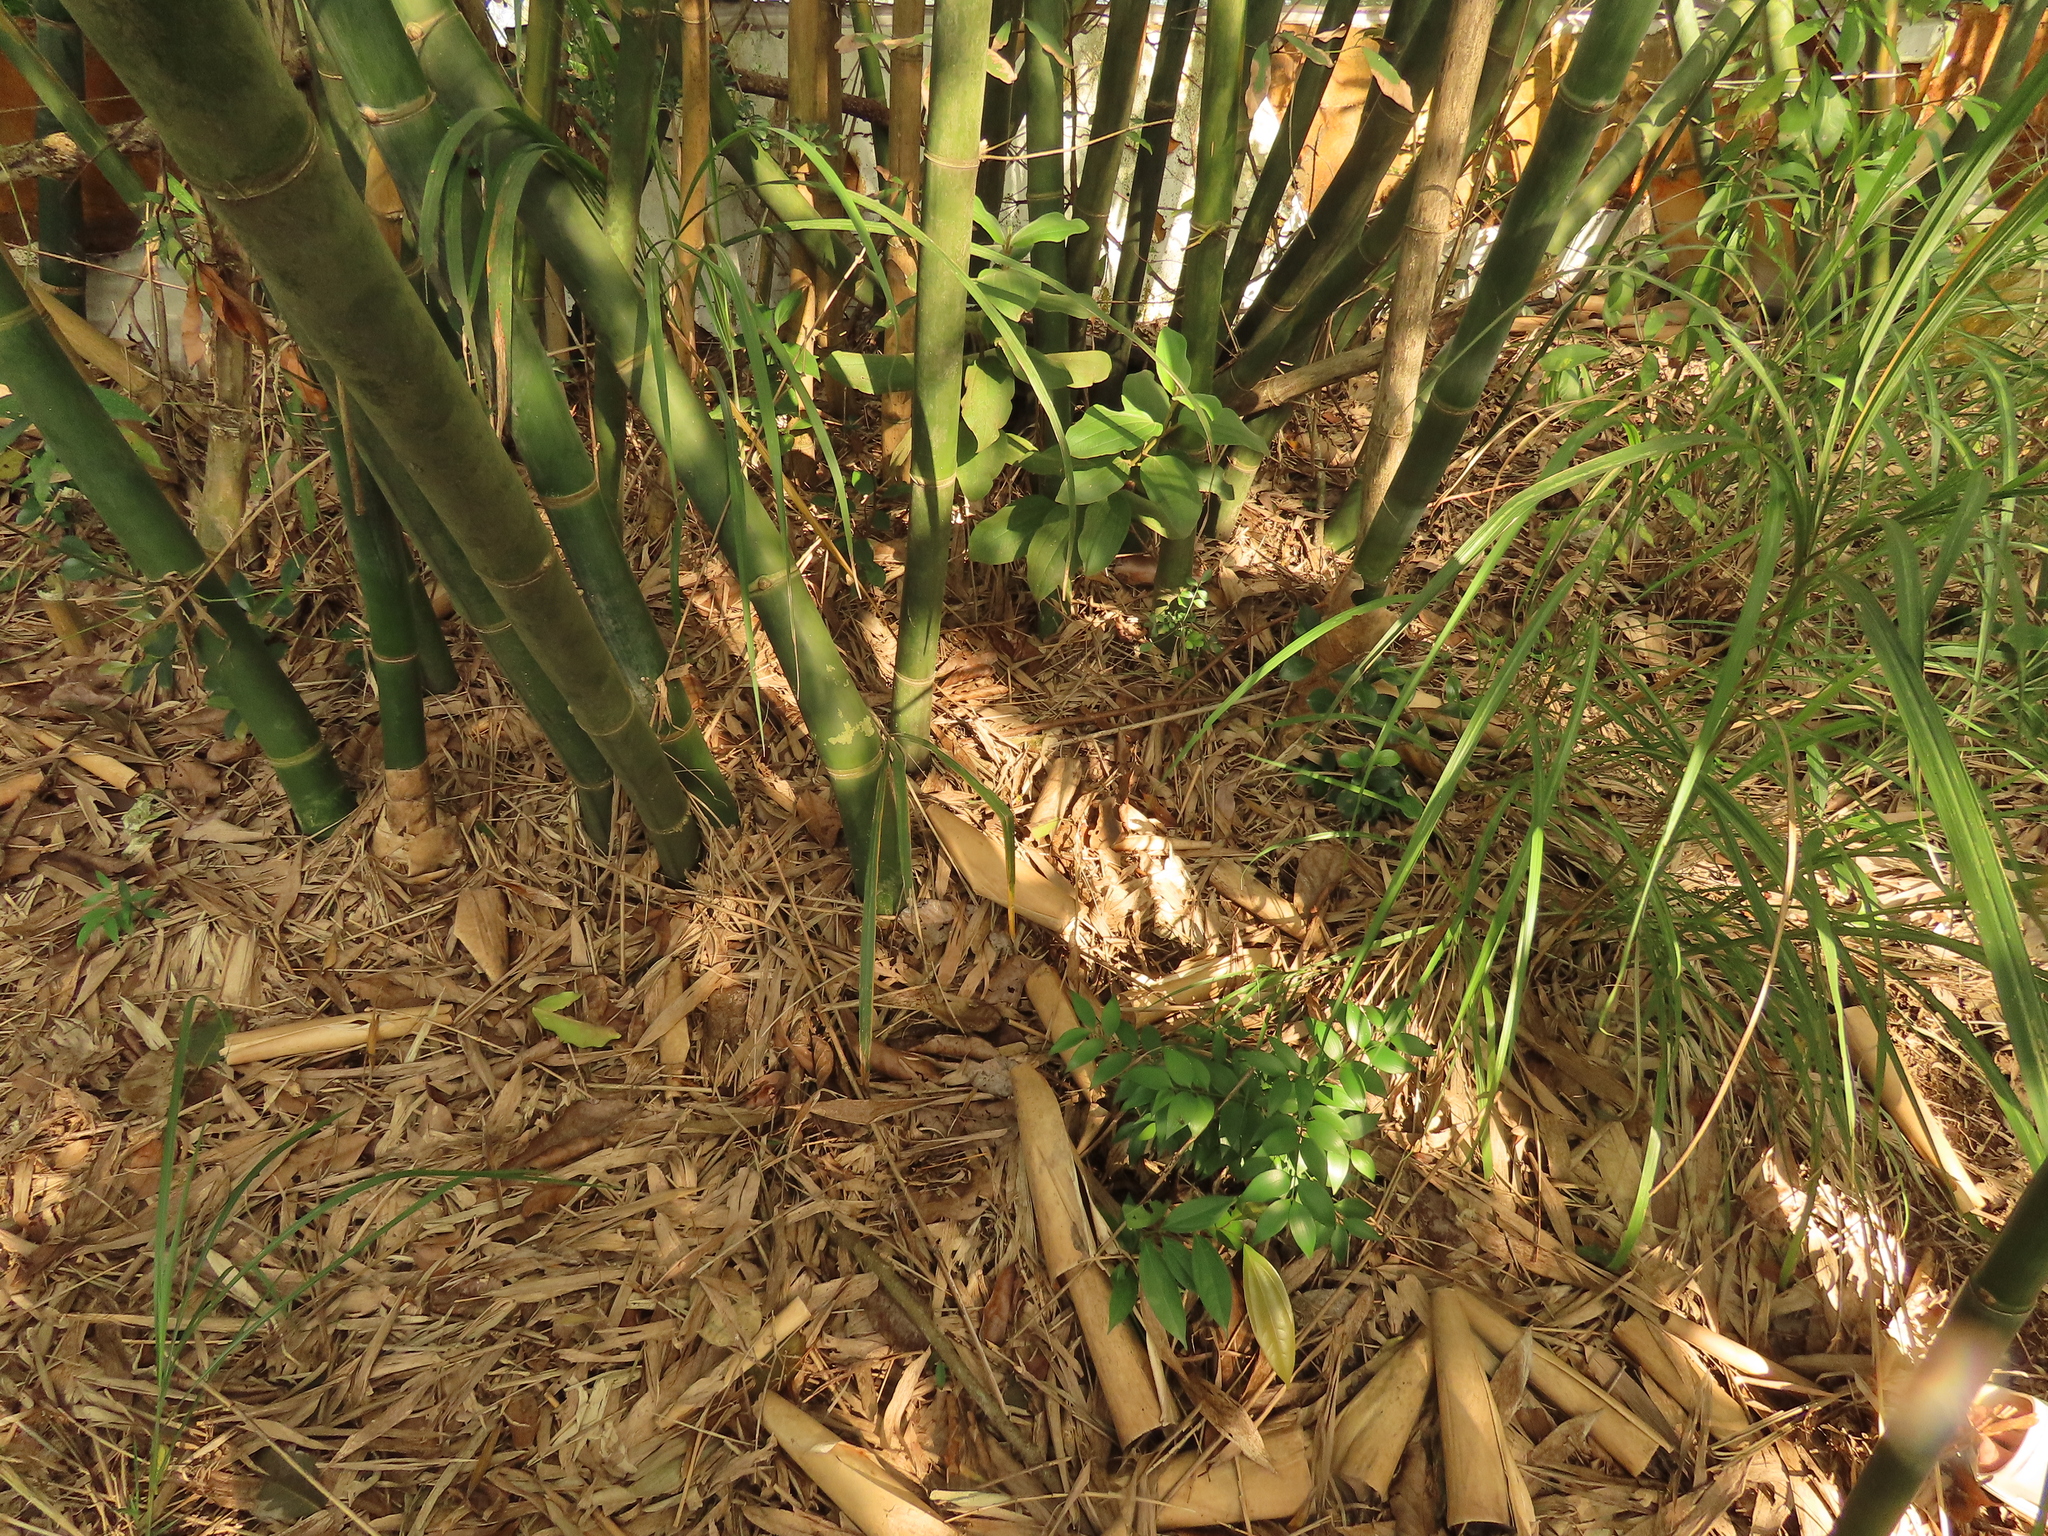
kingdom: Plantae
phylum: Tracheophyta
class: Pinopsida
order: Pinales
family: Podocarpaceae
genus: Nageia
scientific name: Nageia nagi
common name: Kaphal
